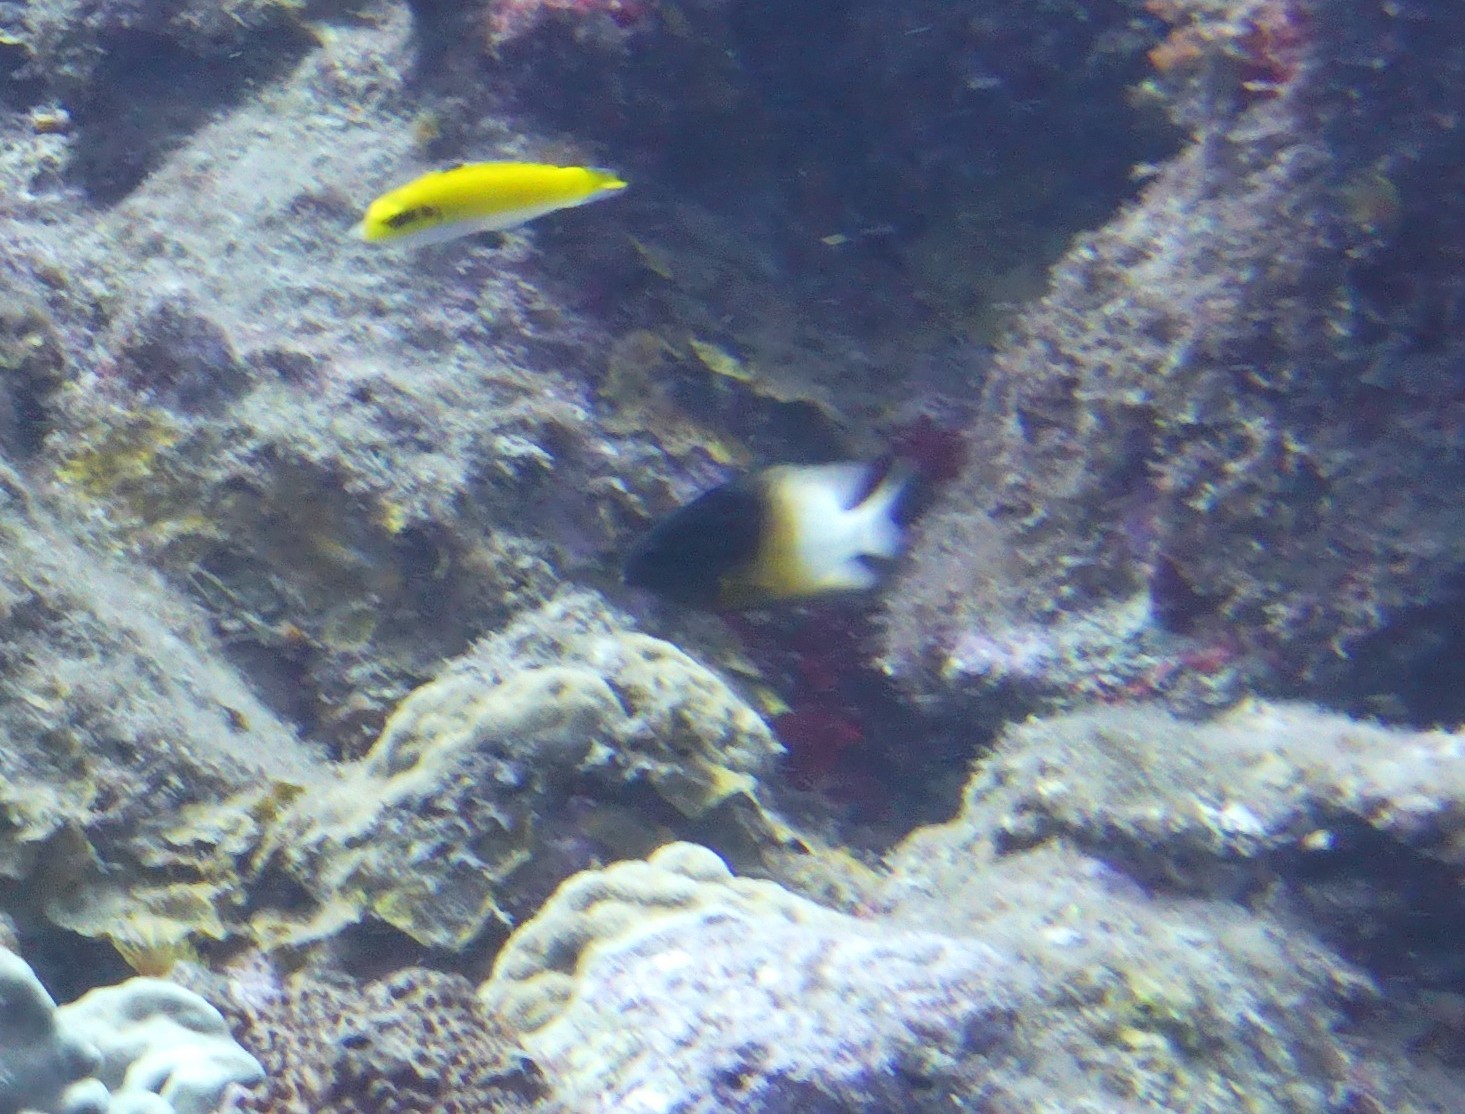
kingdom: Animalia
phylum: Chordata
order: Perciformes
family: Pomacentridae
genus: Stegastes
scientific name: Stegastes partitus
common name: Bicolor damselfish
